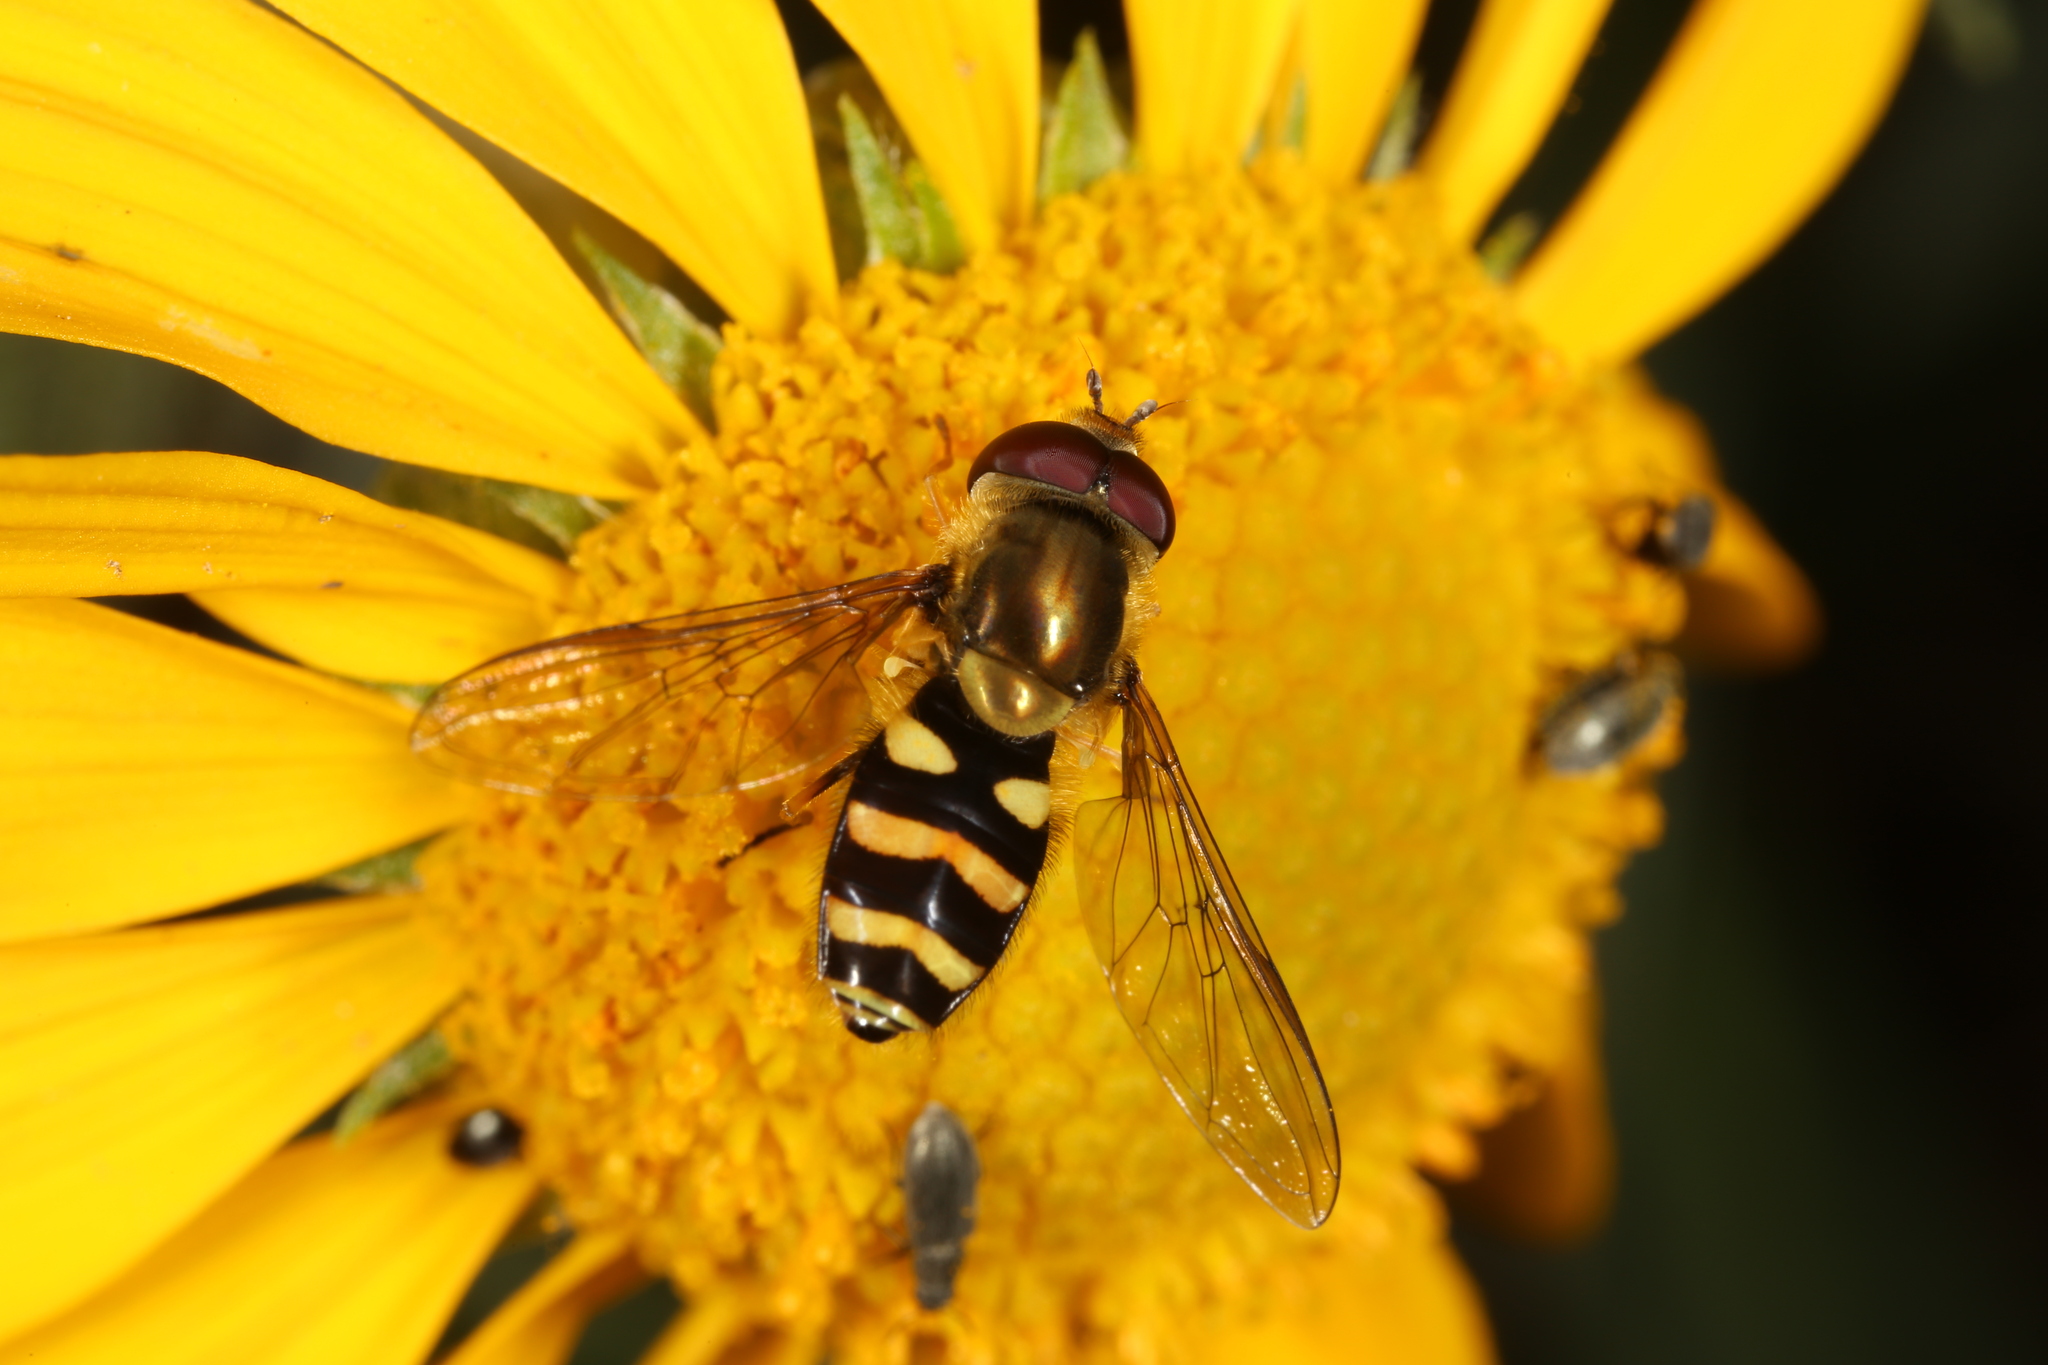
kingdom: Animalia
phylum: Arthropoda
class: Insecta
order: Diptera
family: Syrphidae
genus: Syrphus
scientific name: Syrphus opinator
